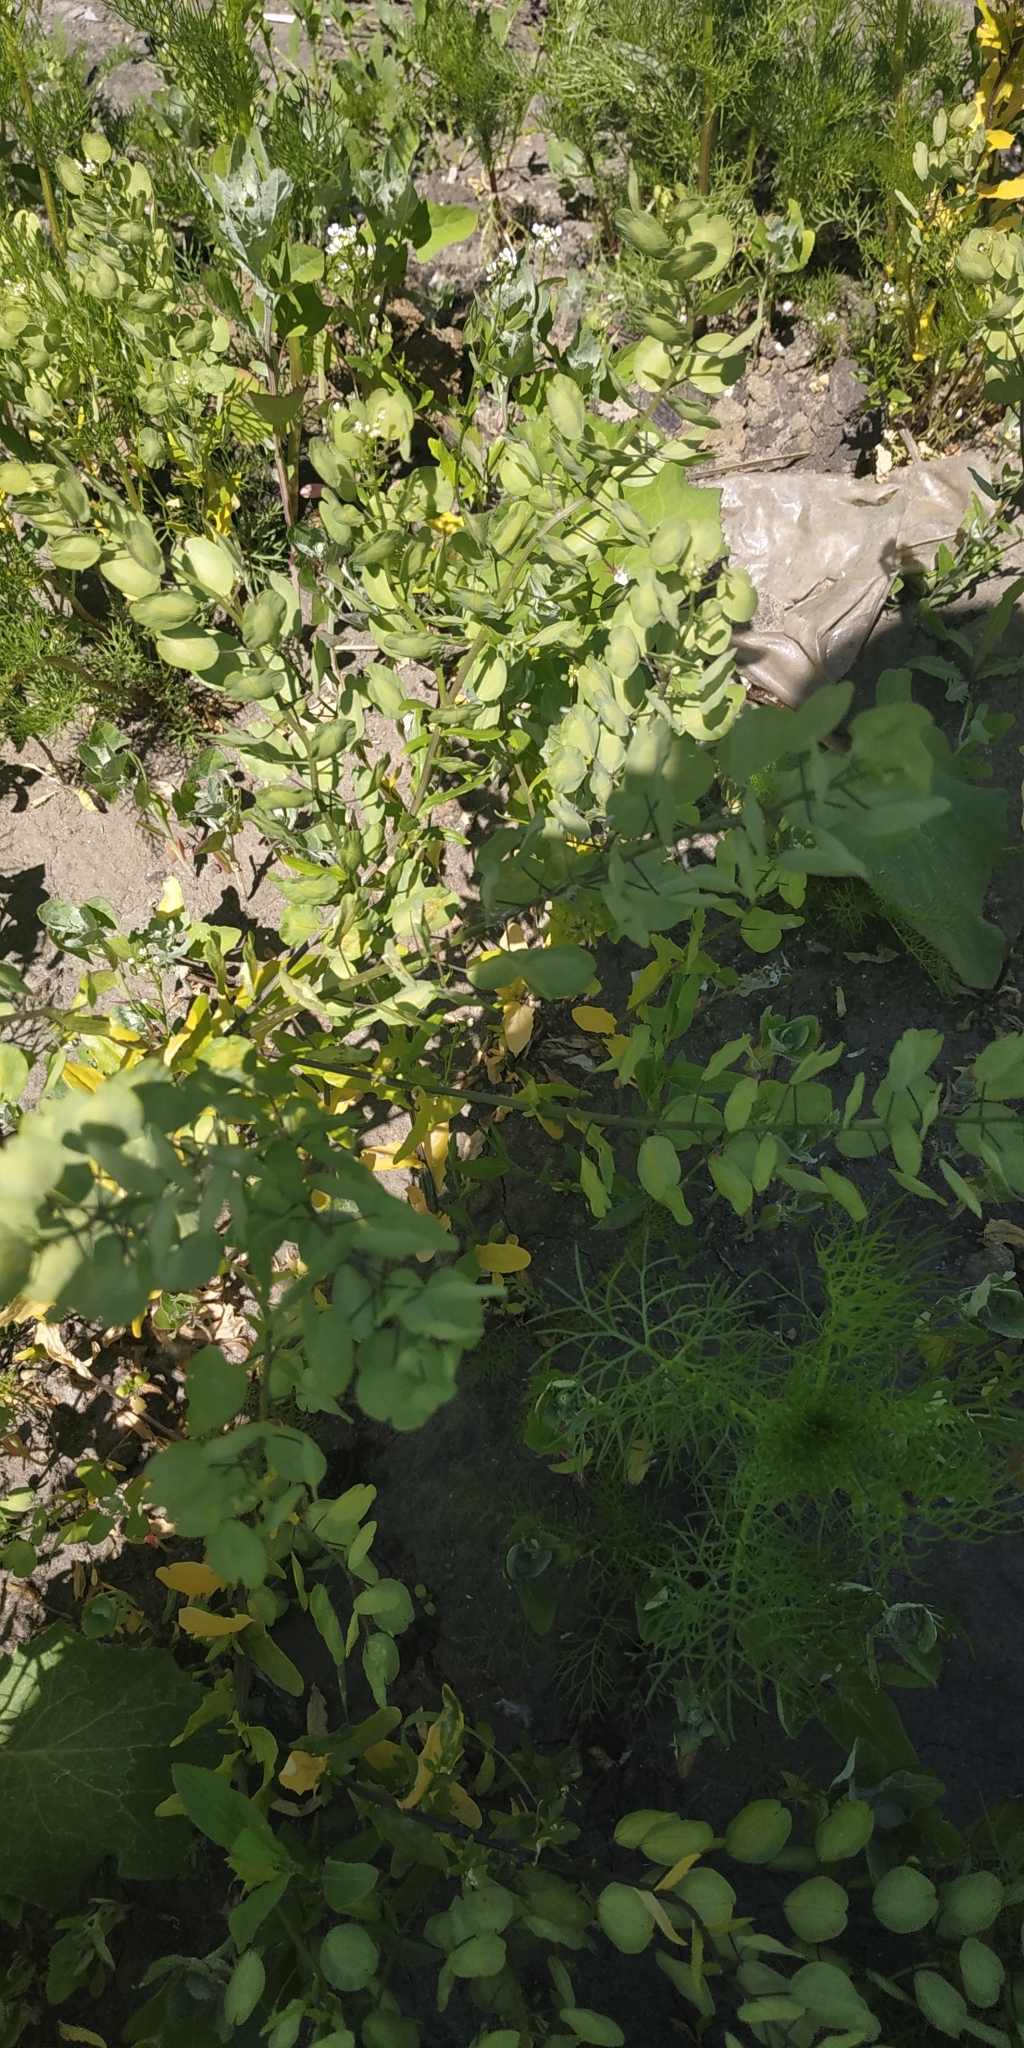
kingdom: Plantae
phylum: Tracheophyta
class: Magnoliopsida
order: Brassicales
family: Brassicaceae
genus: Thlaspi
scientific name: Thlaspi arvense
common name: Field pennycress
